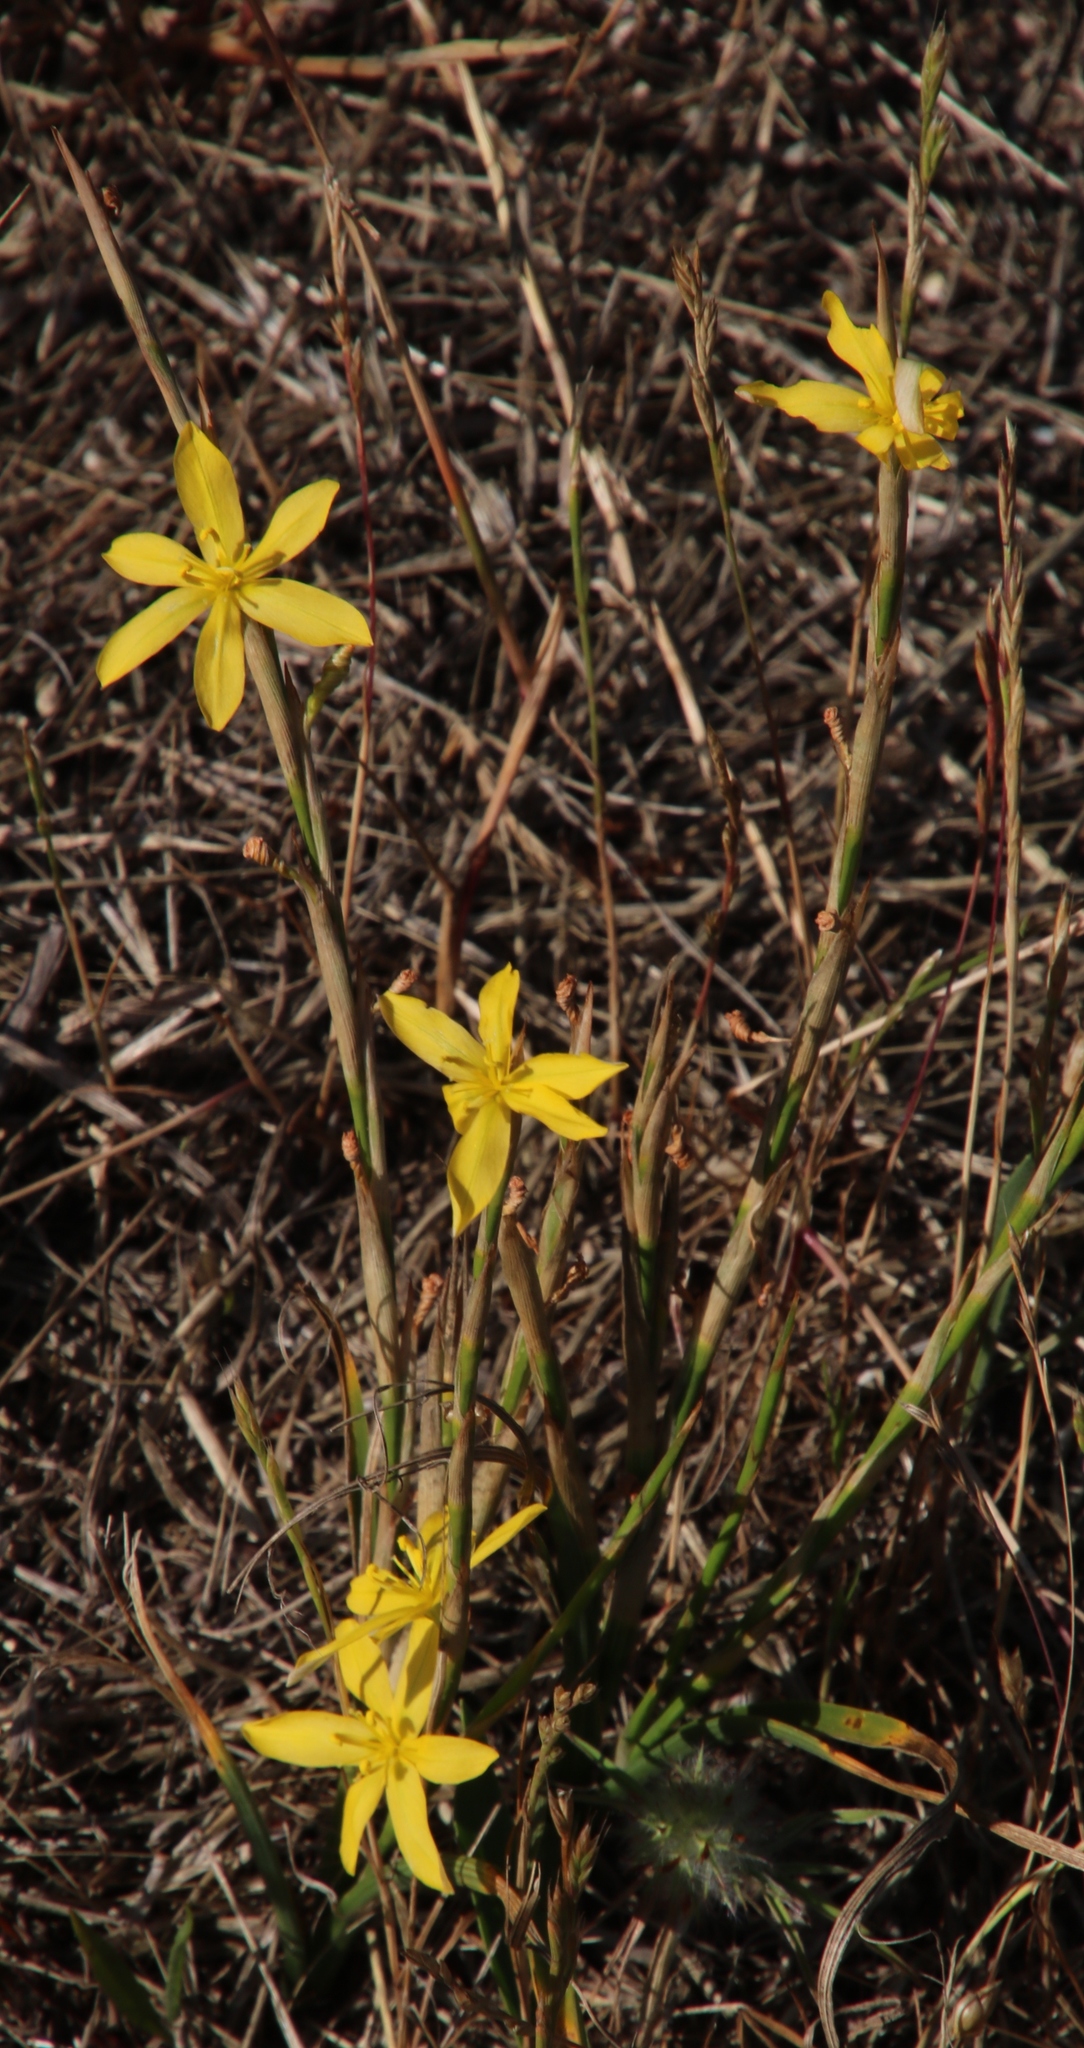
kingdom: Plantae
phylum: Tracheophyta
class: Liliopsida
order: Asparagales
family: Iridaceae
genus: Moraea
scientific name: Moraea lewisiae
